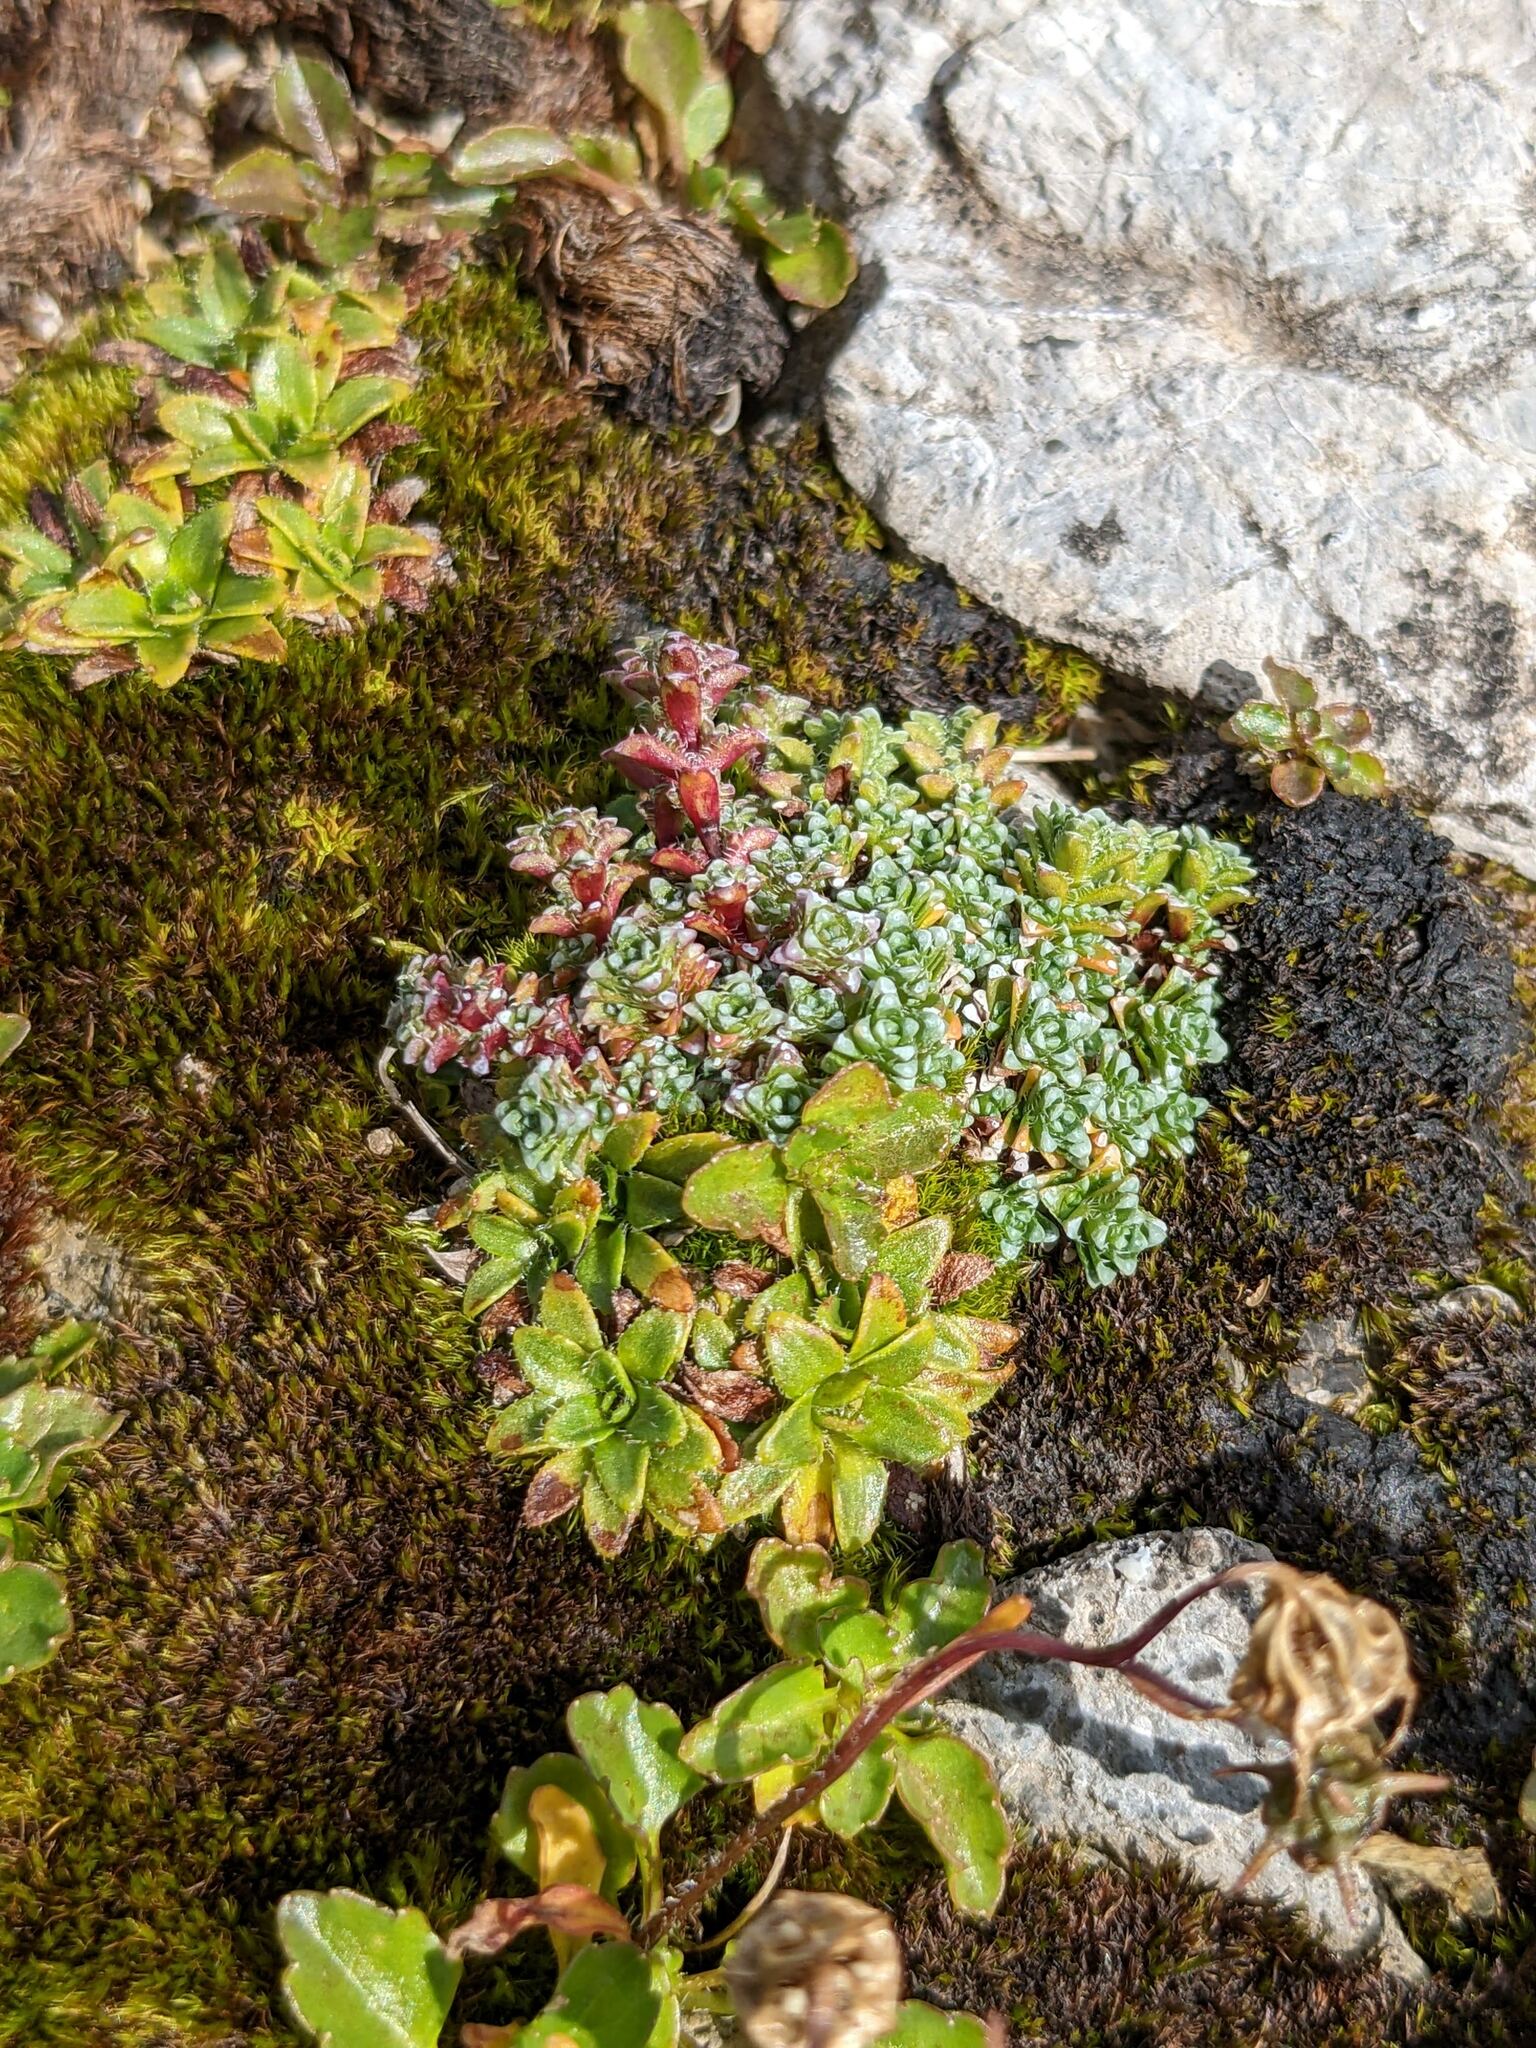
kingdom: Plantae
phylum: Tracheophyta
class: Magnoliopsida
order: Saxifragales
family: Saxifragaceae
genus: Saxifraga
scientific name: Saxifraga oppositifolia
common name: Purple saxifrage
